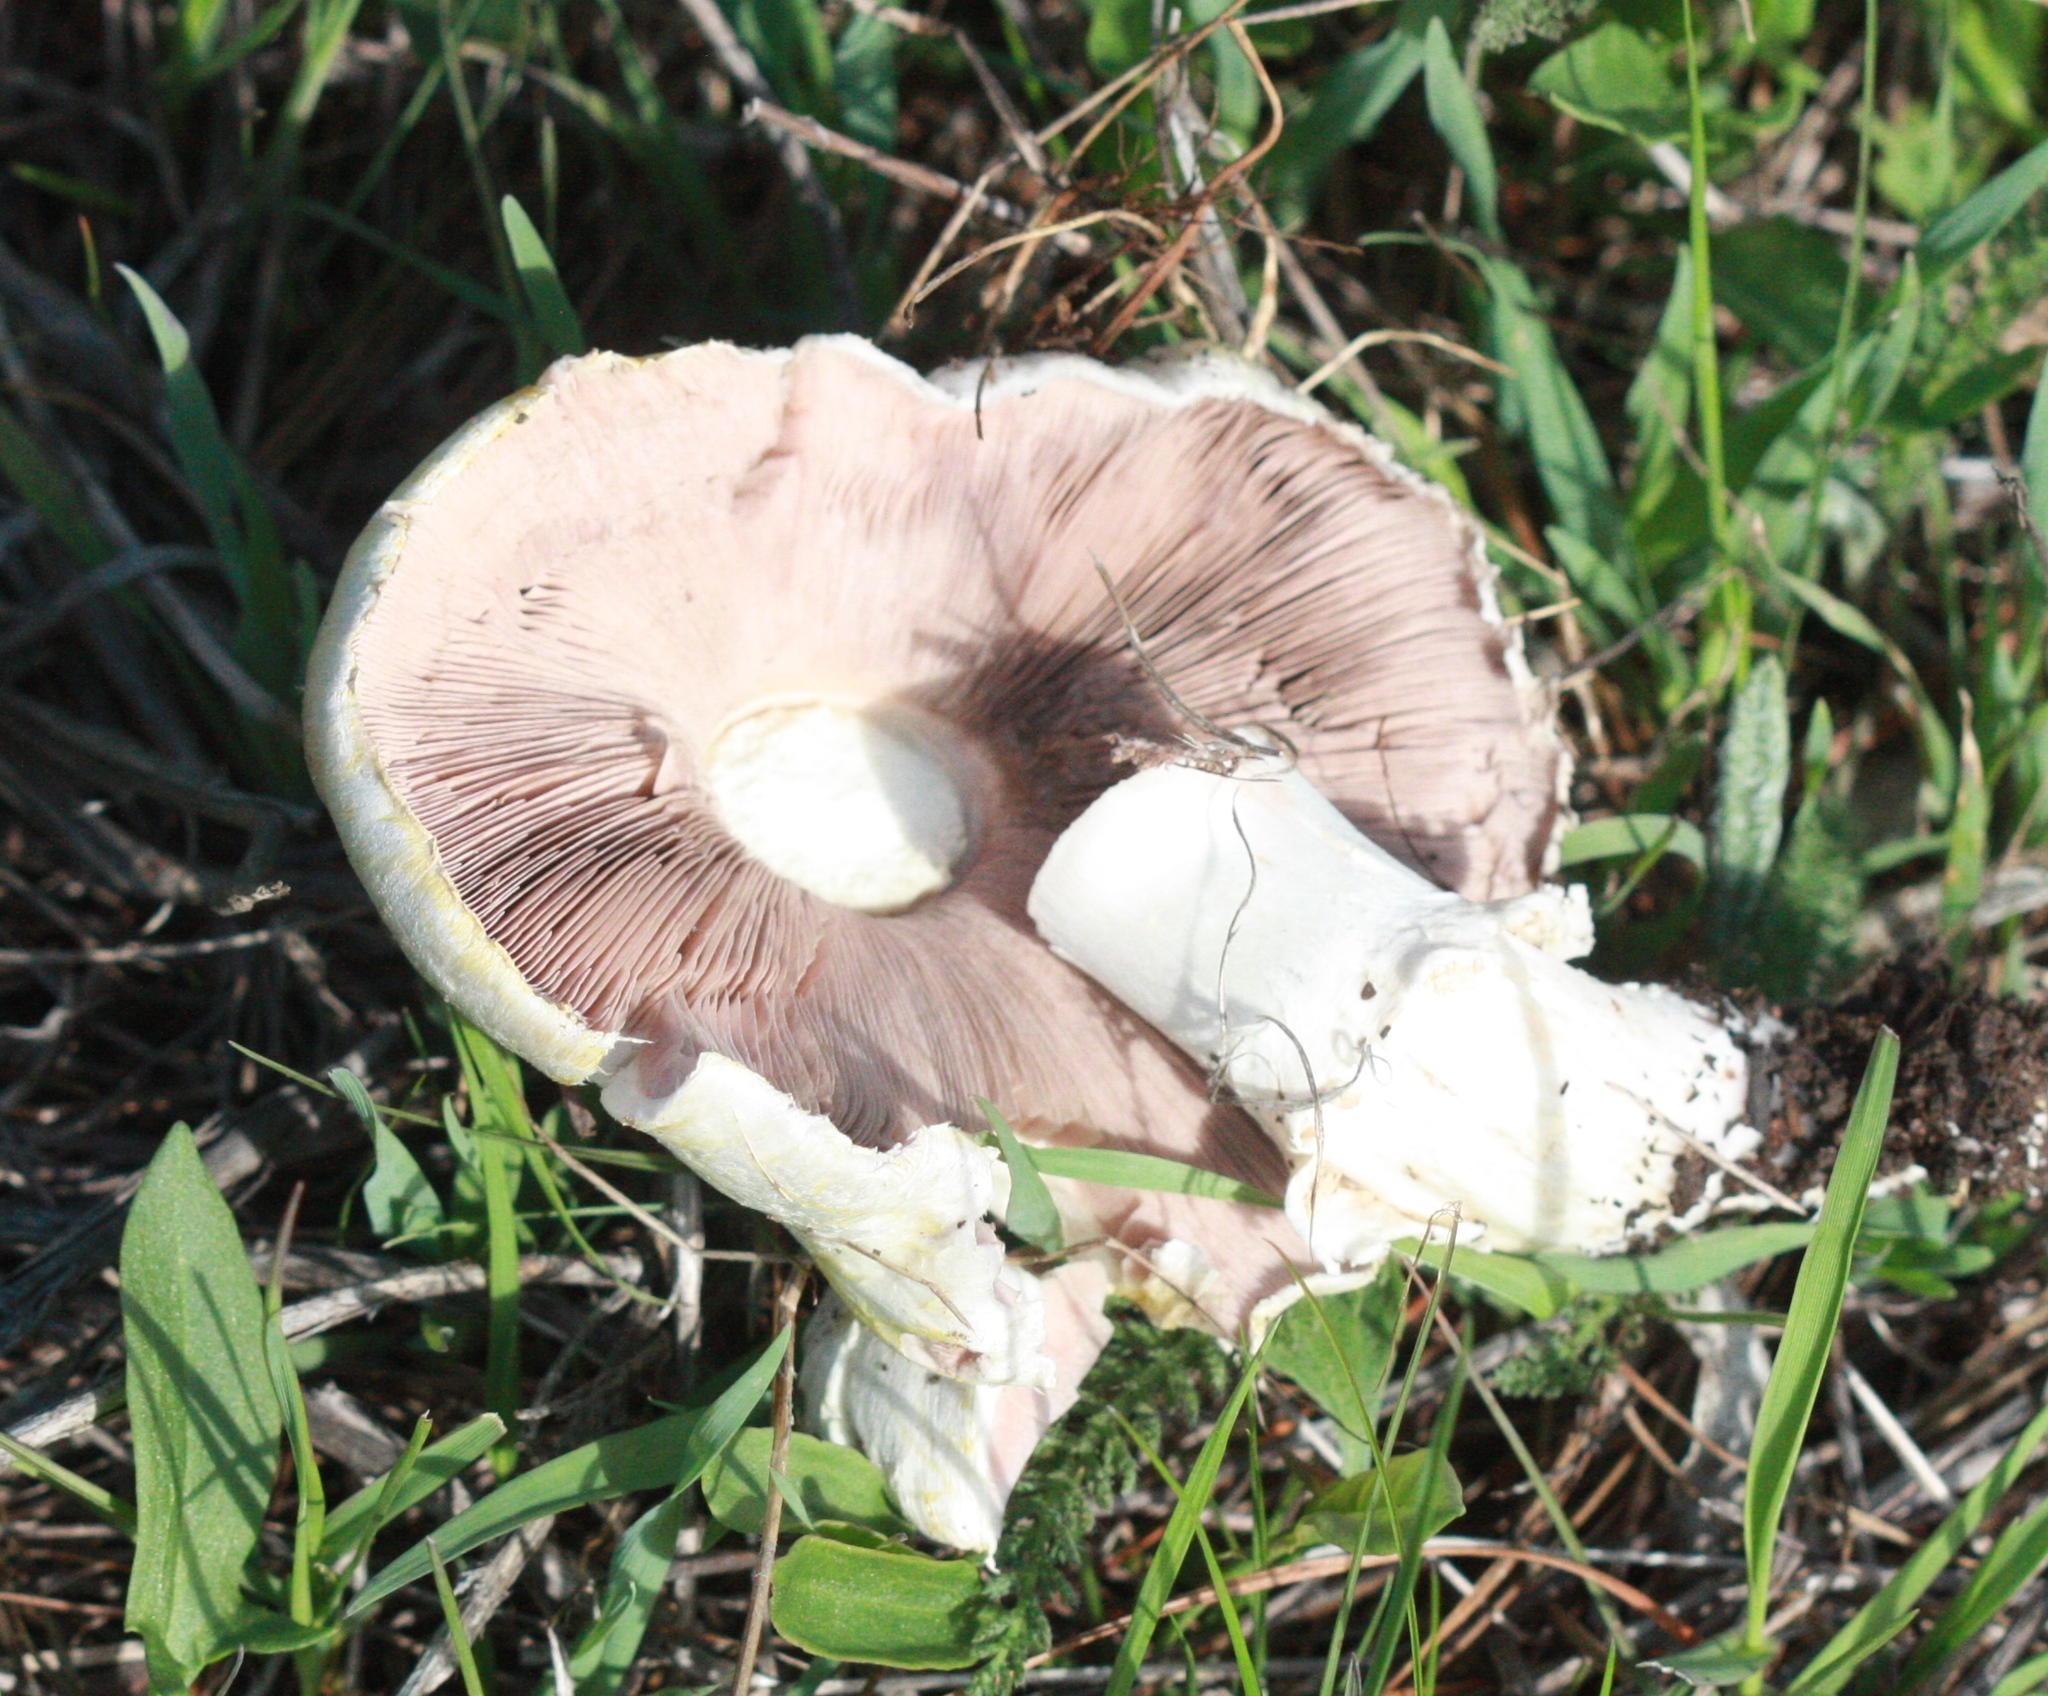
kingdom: Fungi
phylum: Basidiomycota
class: Agaricomycetes
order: Agaricales
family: Agaricaceae
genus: Agaricus
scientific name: Agaricus xanthodermus
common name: Yellow stainer
